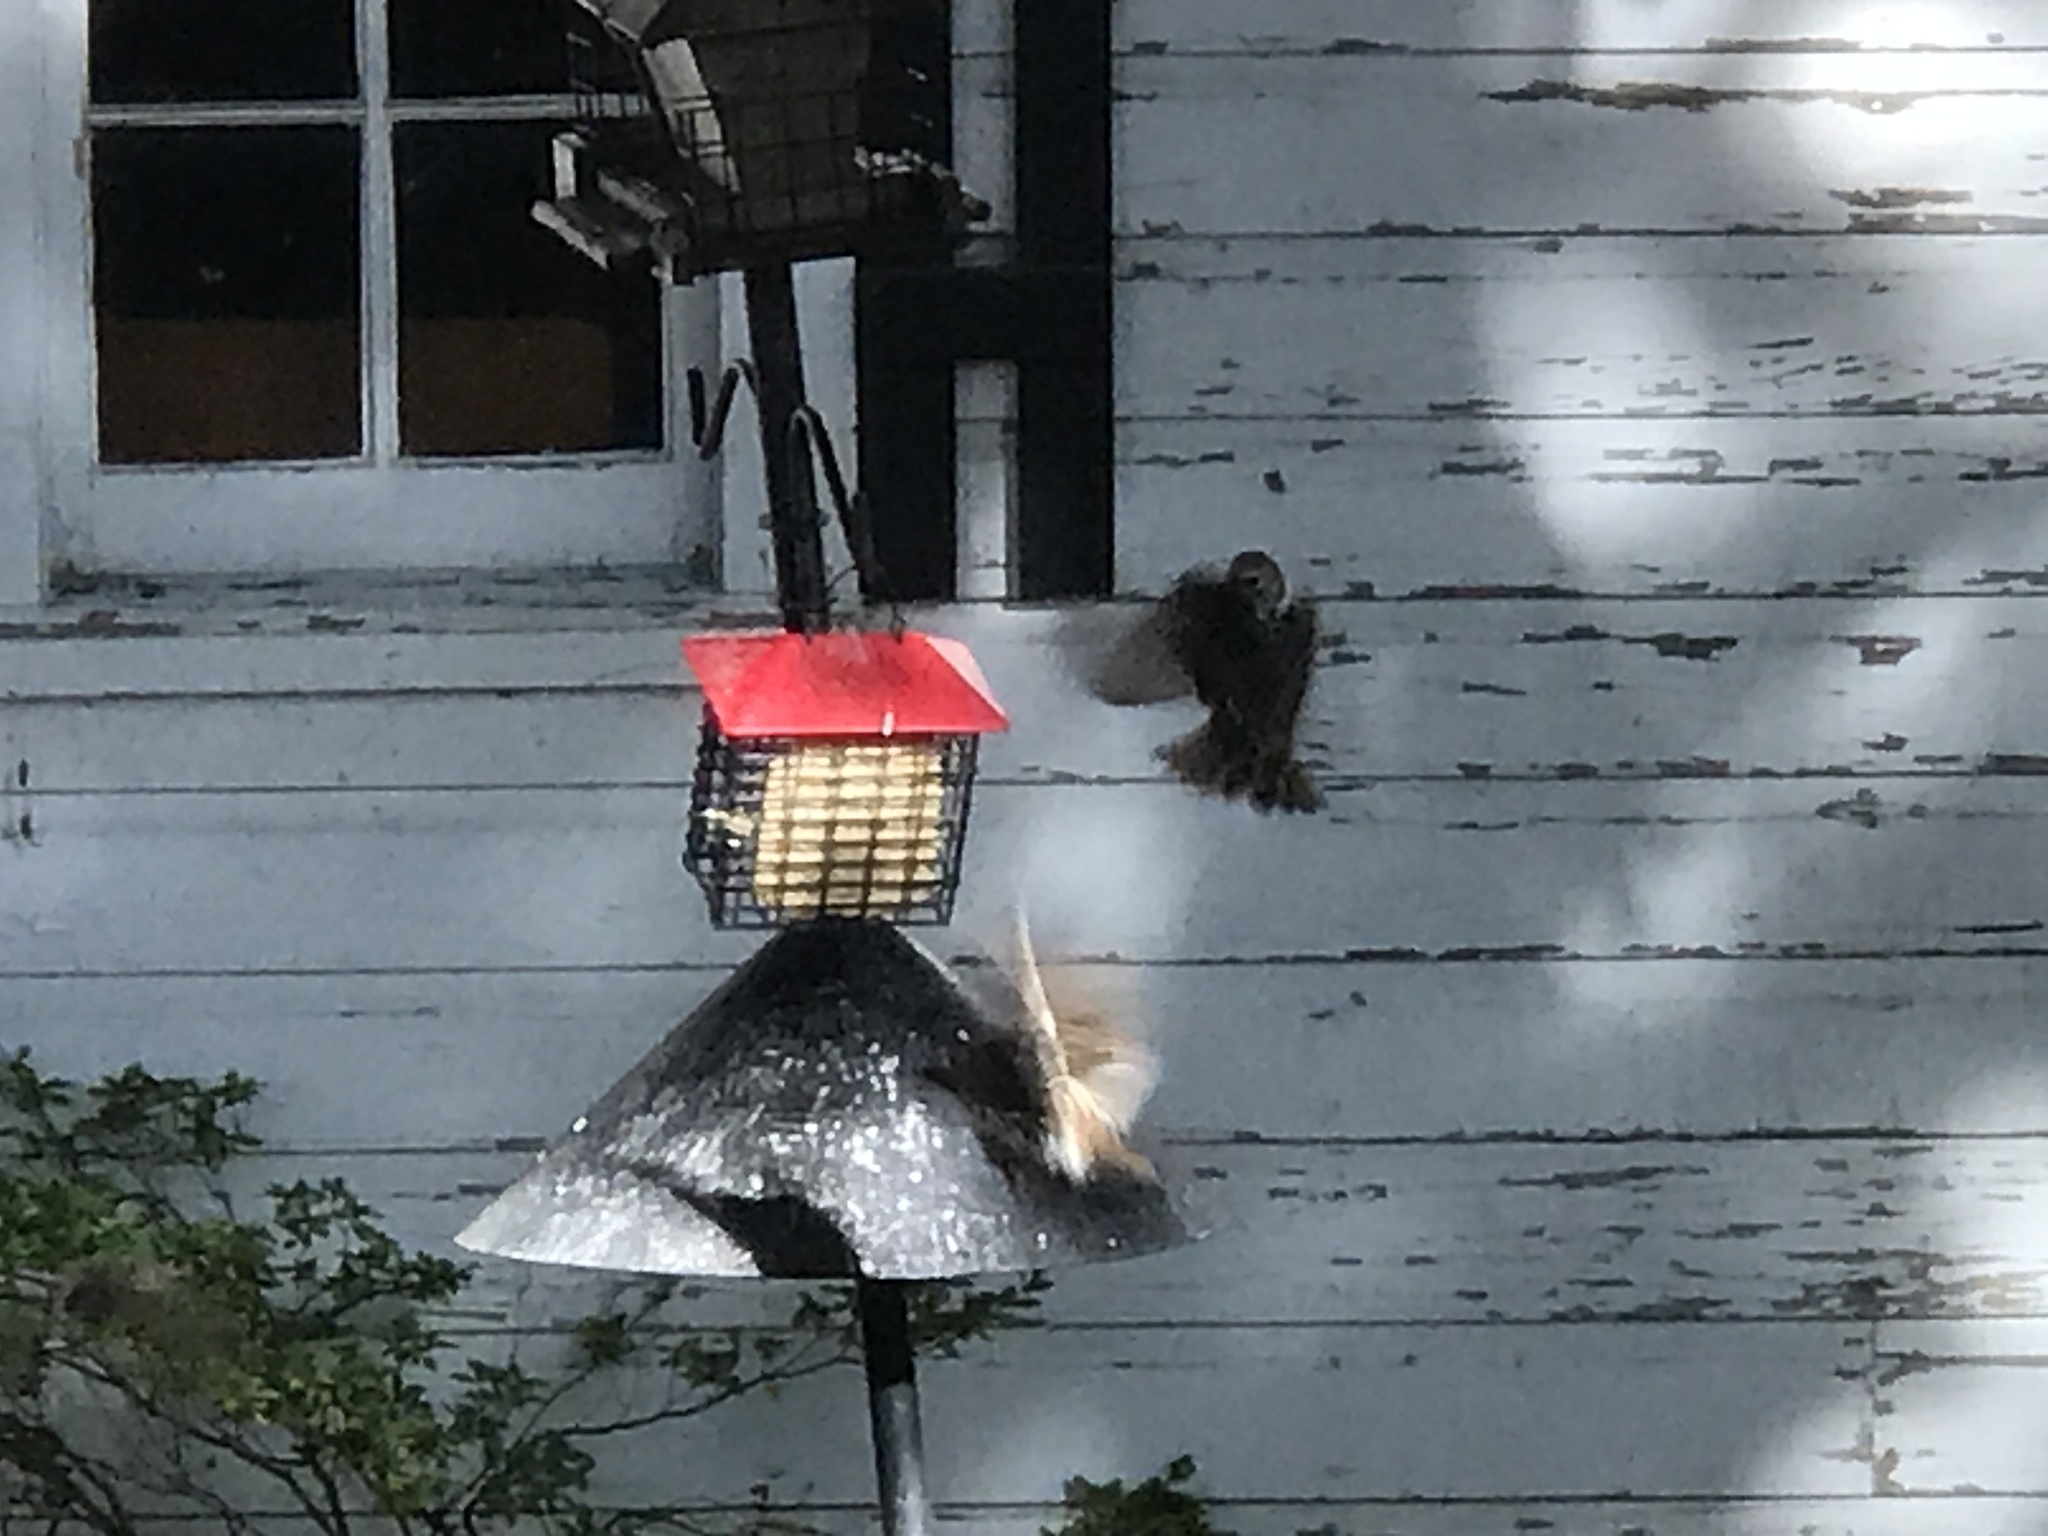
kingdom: Animalia
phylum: Chordata
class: Aves
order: Passeriformes
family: Sturnidae
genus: Sturnus
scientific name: Sturnus vulgaris
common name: Common starling
